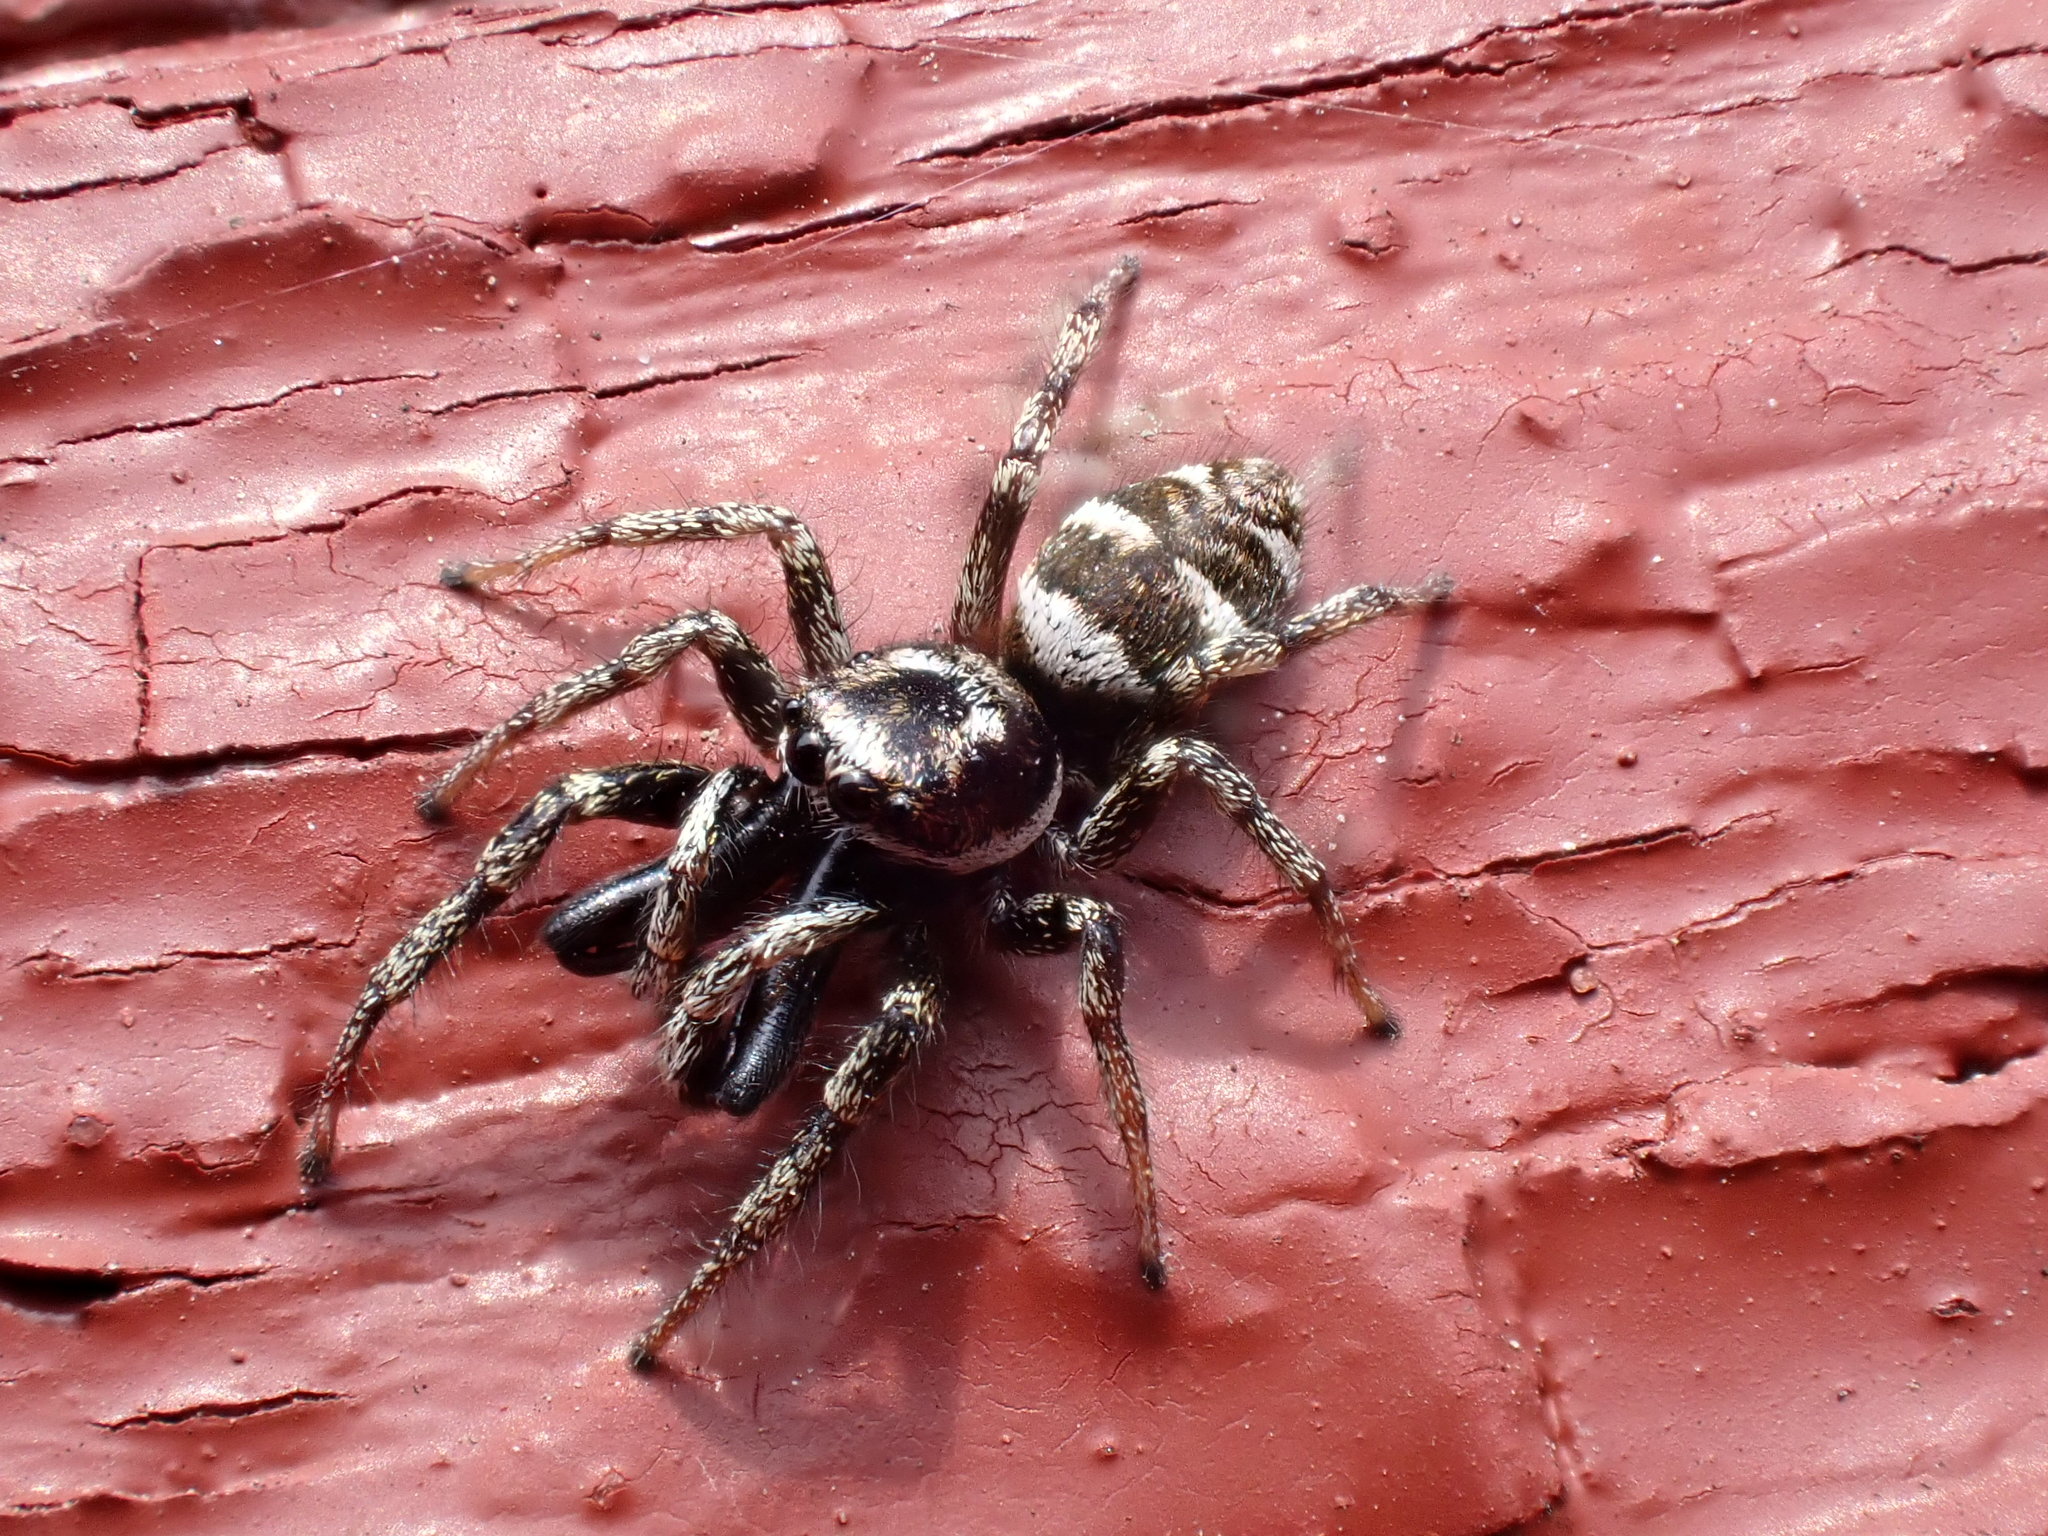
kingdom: Animalia
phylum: Arthropoda
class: Arachnida
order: Araneae
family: Salticidae
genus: Salticus
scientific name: Salticus scenicus
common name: Zebra jumper
